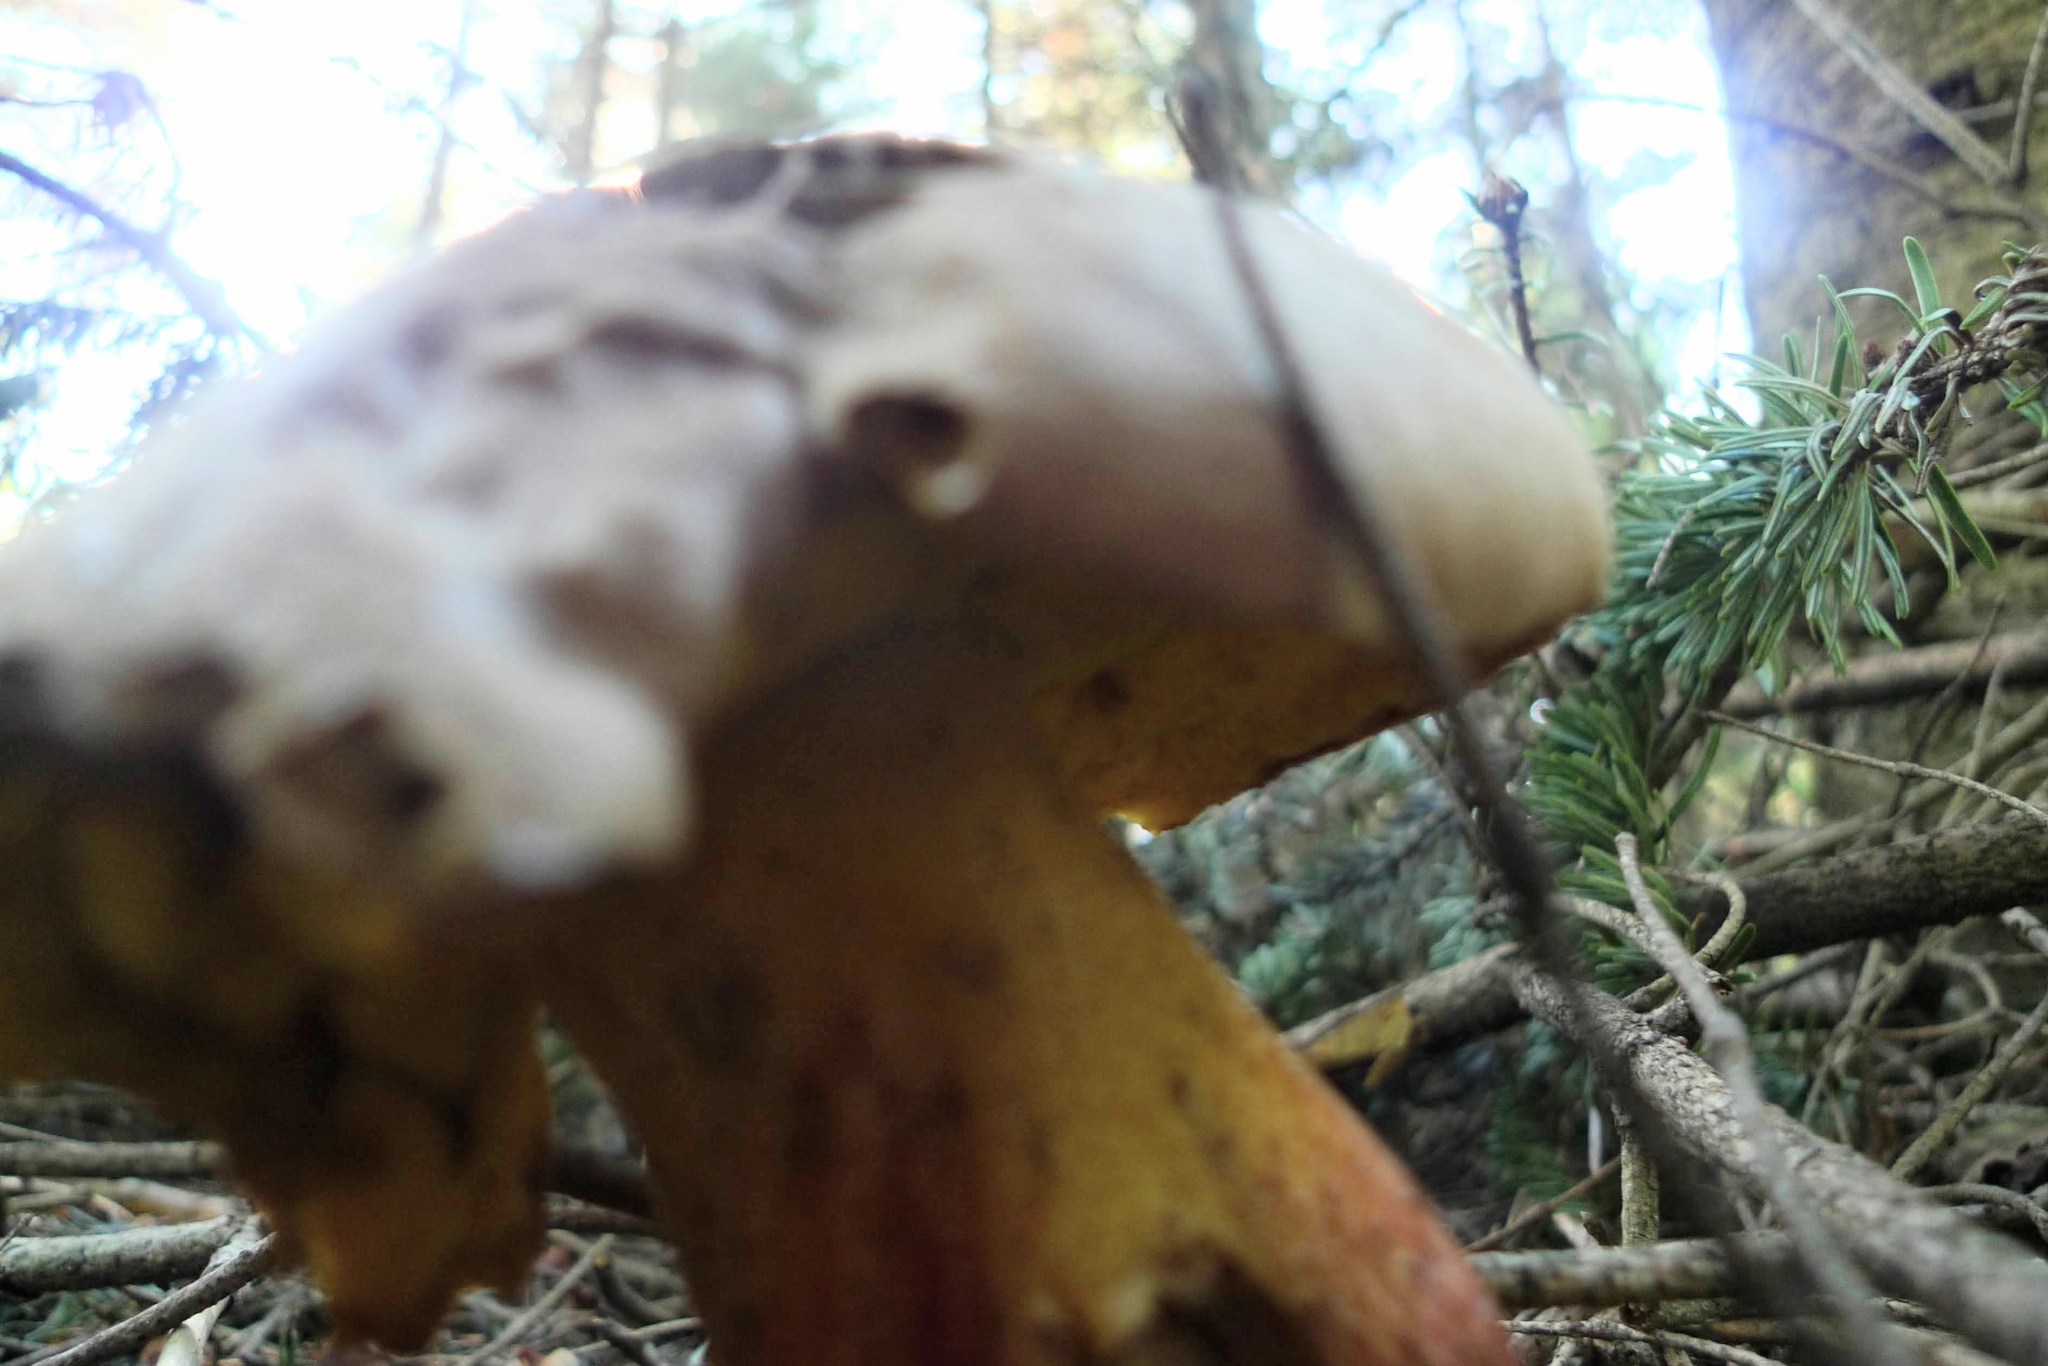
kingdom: Fungi
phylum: Basidiomycota
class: Agaricomycetes
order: Boletales
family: Boletaceae
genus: Caloboletus
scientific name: Caloboletus calopus
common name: Bitter beech bolete
